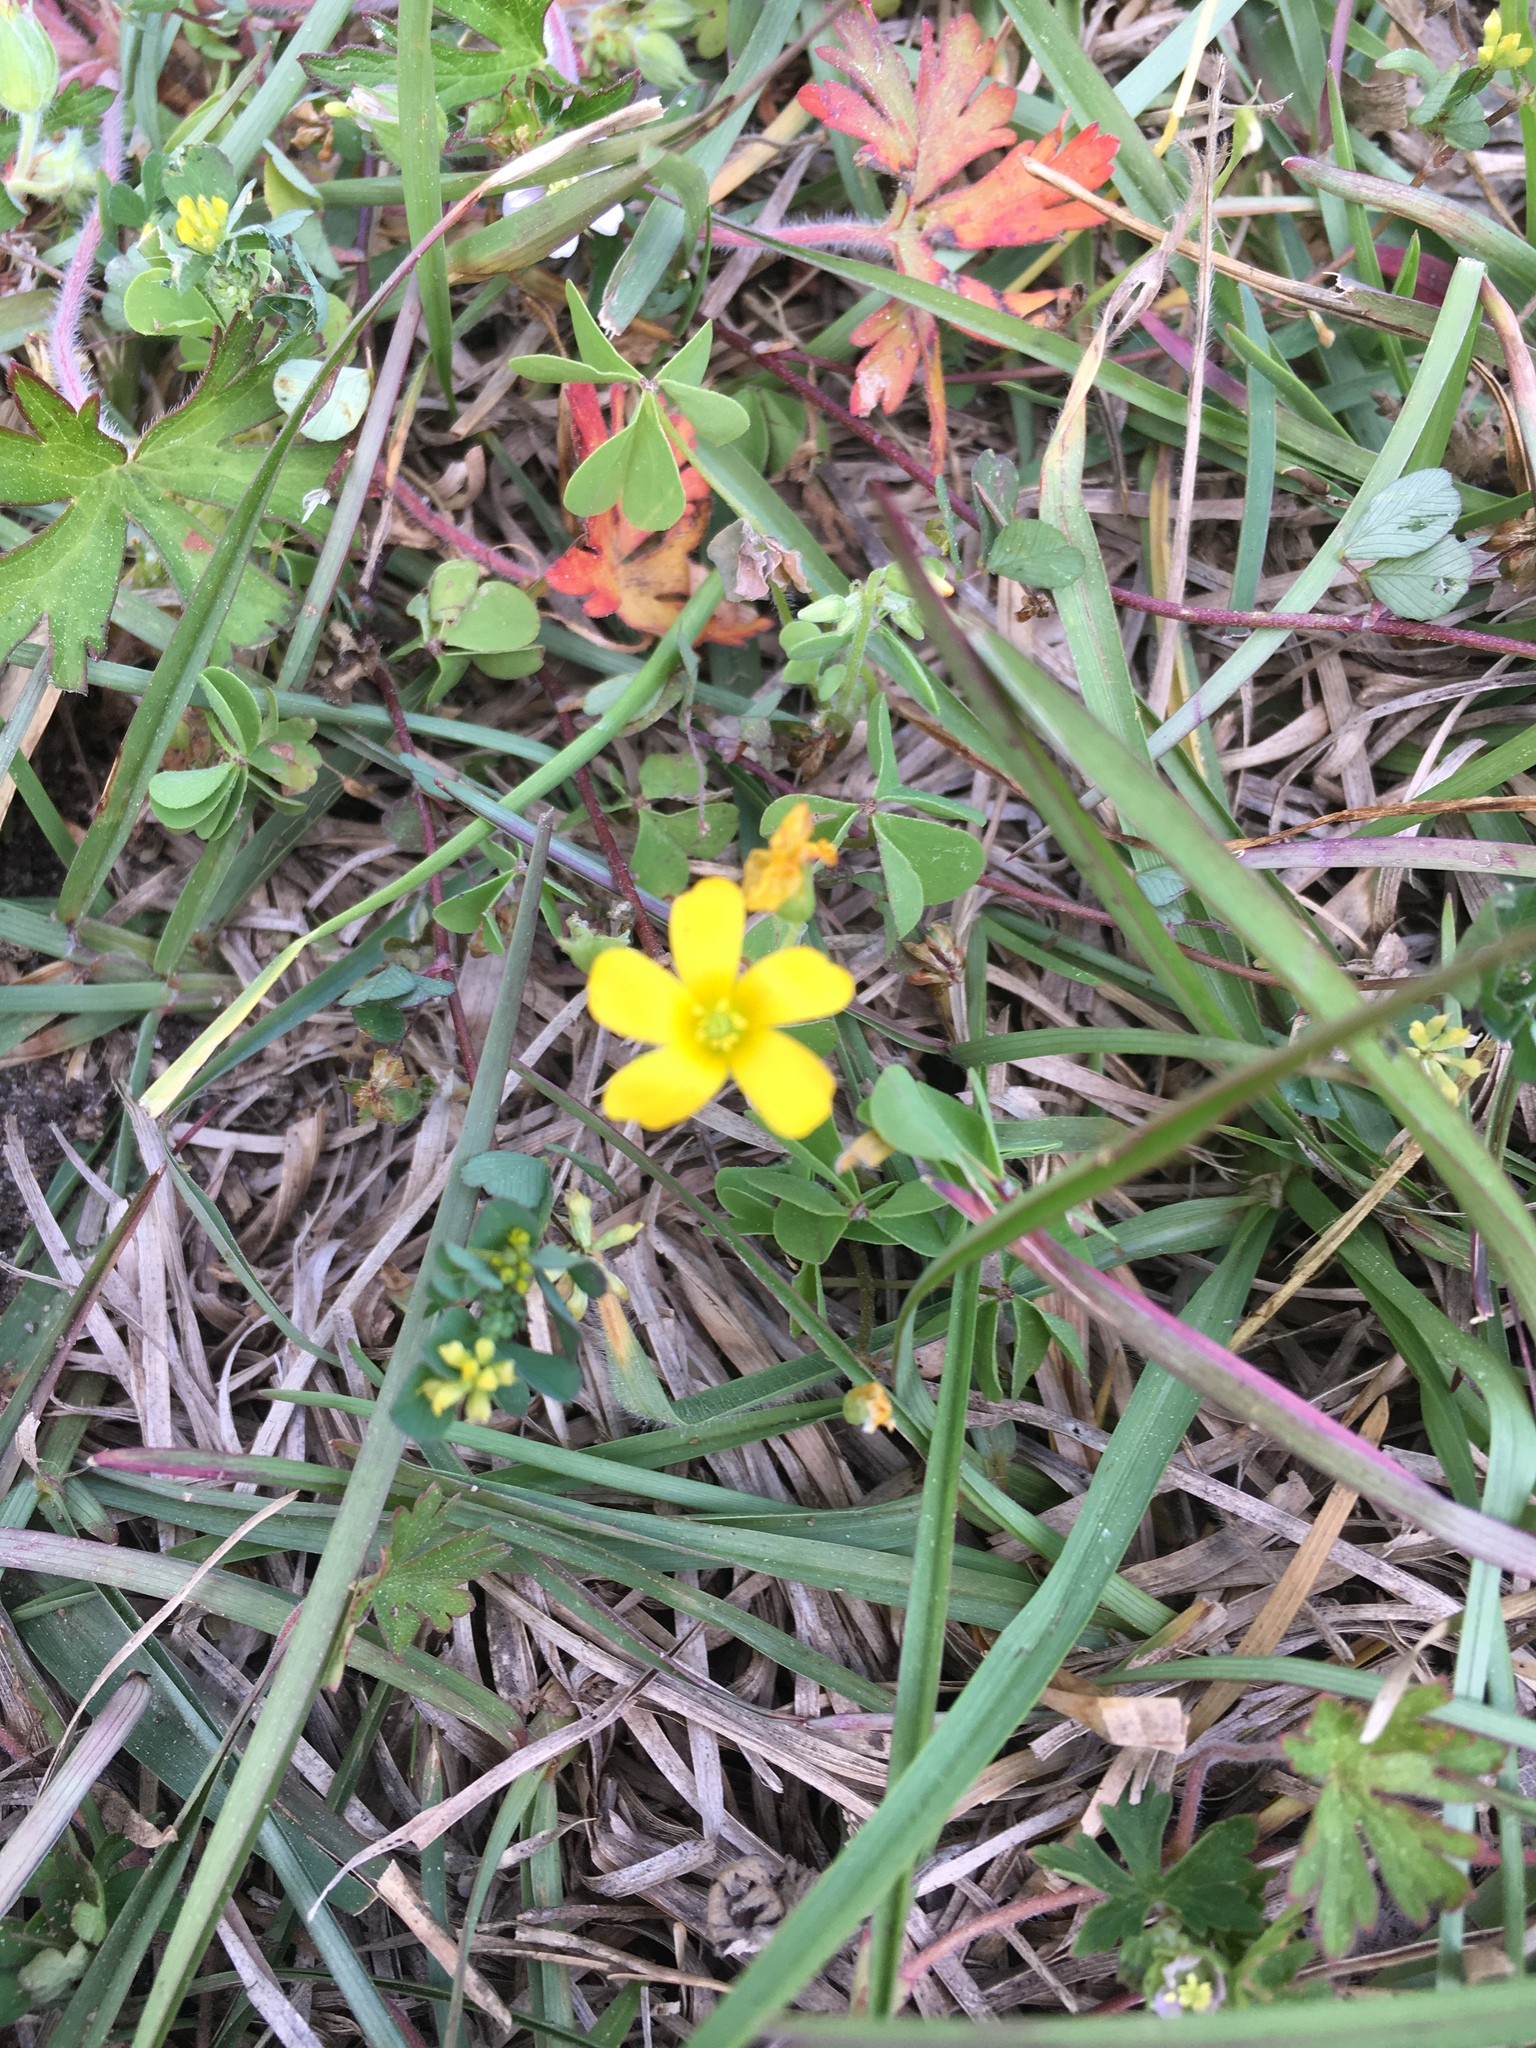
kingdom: Plantae
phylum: Tracheophyta
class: Magnoliopsida
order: Oxalidales
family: Oxalidaceae
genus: Oxalis
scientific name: Oxalis corniculata
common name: Procumbent yellow-sorrel
